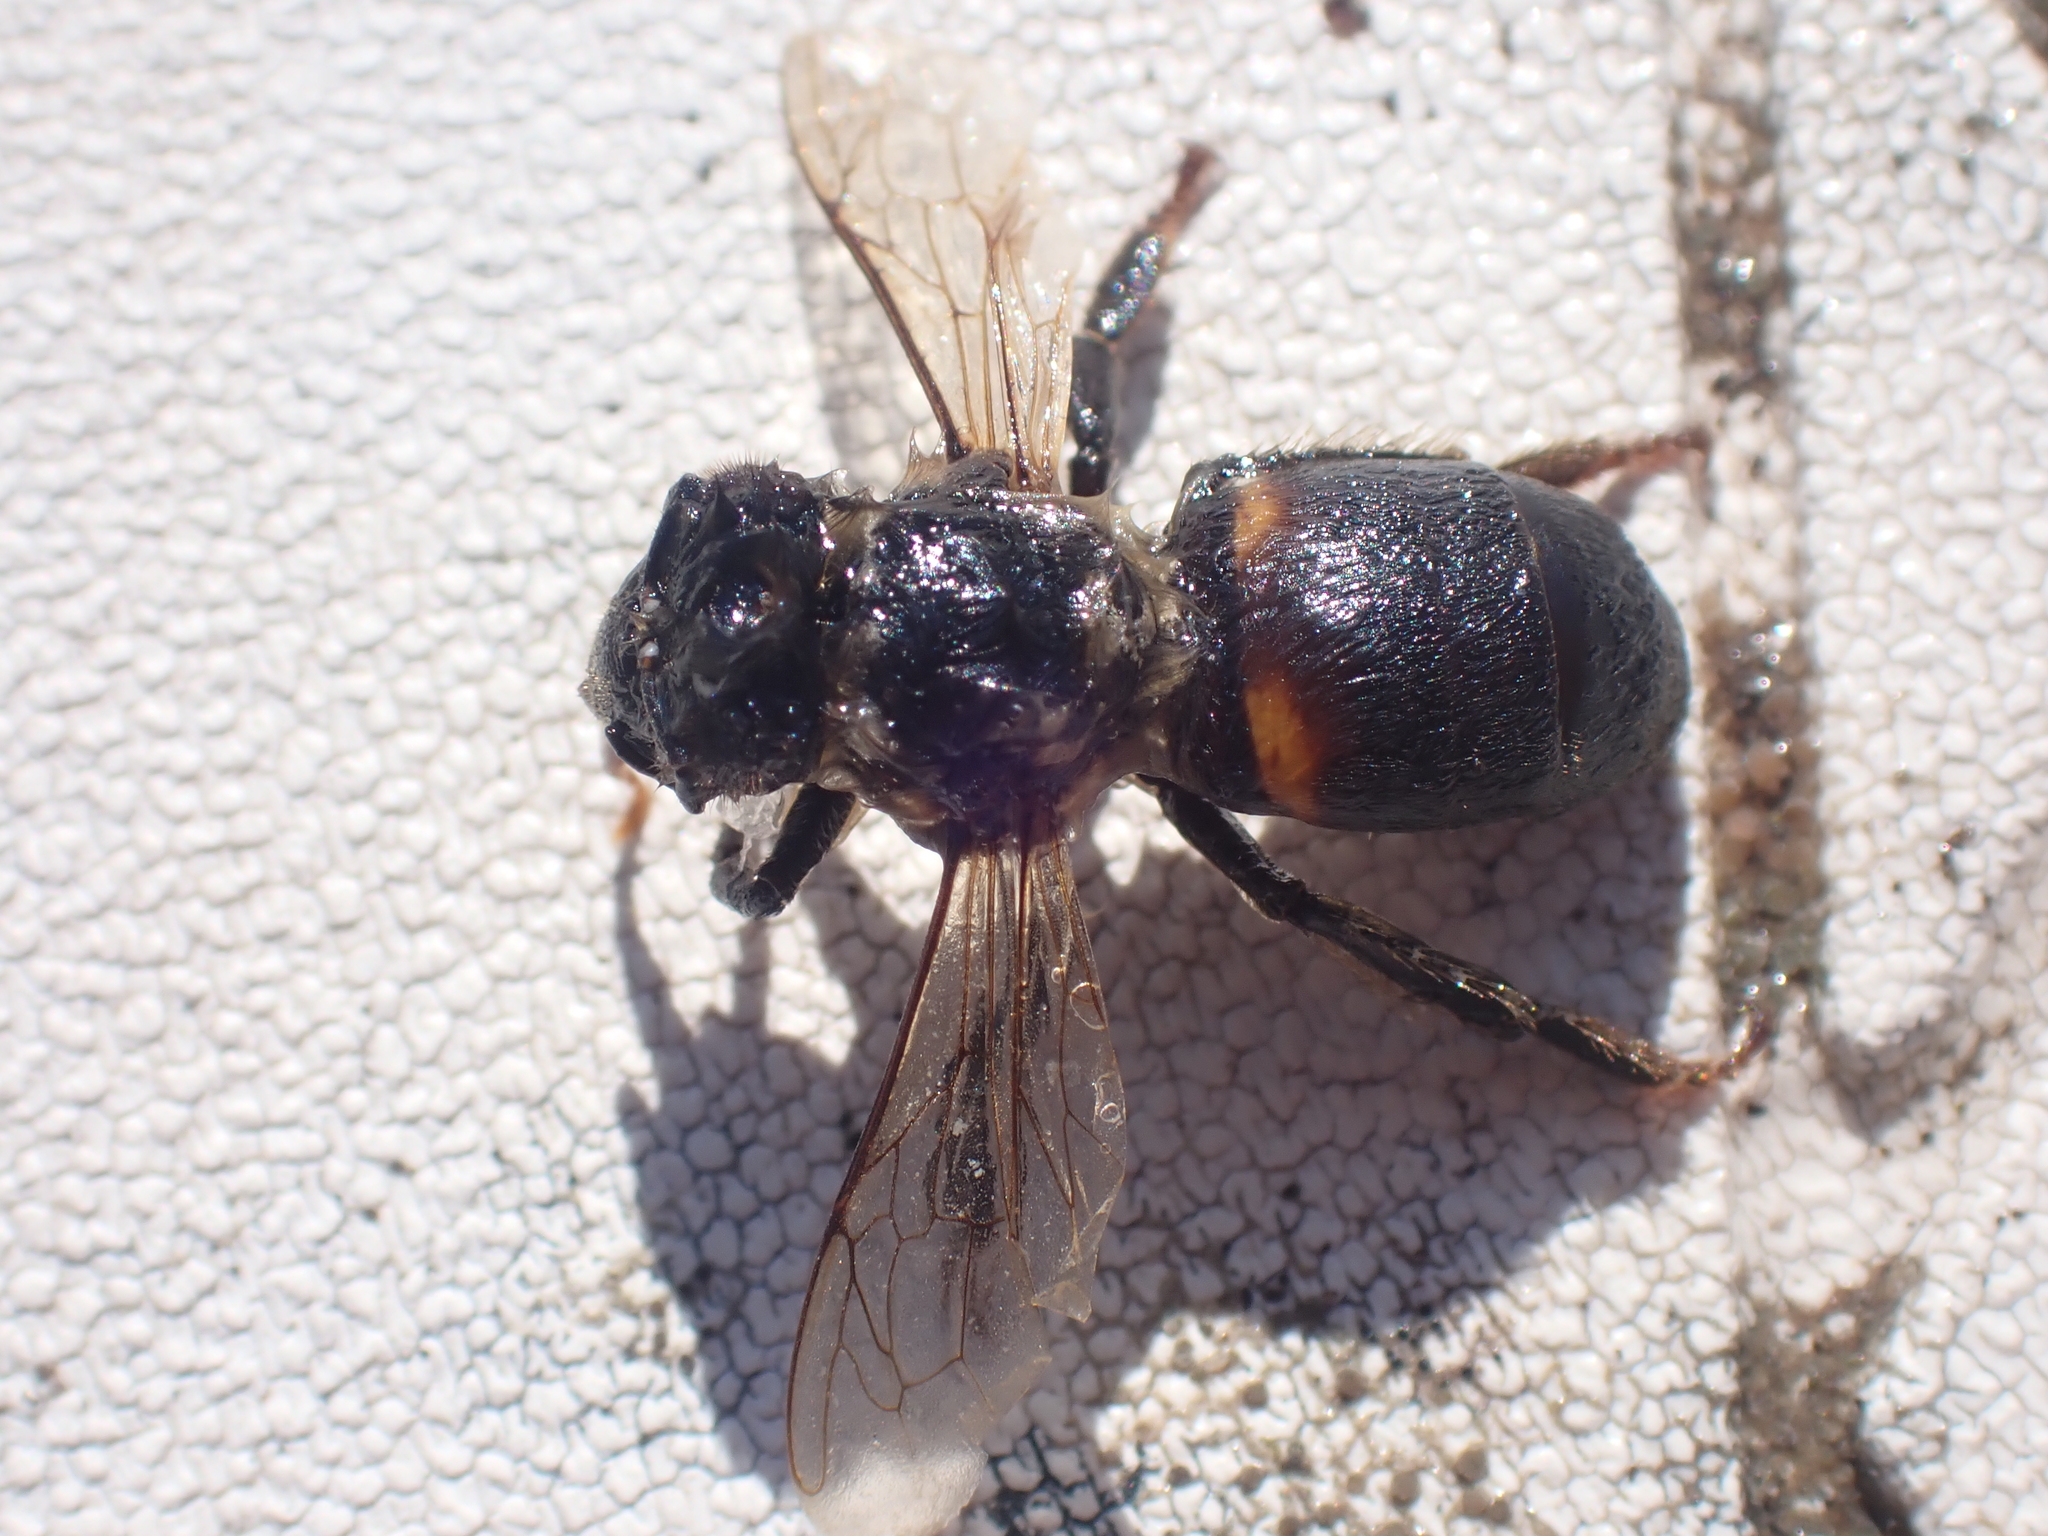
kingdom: Animalia
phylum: Arthropoda
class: Insecta
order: Hymenoptera
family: Apidae
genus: Apis
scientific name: Apis mellifera
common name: Honey bee
